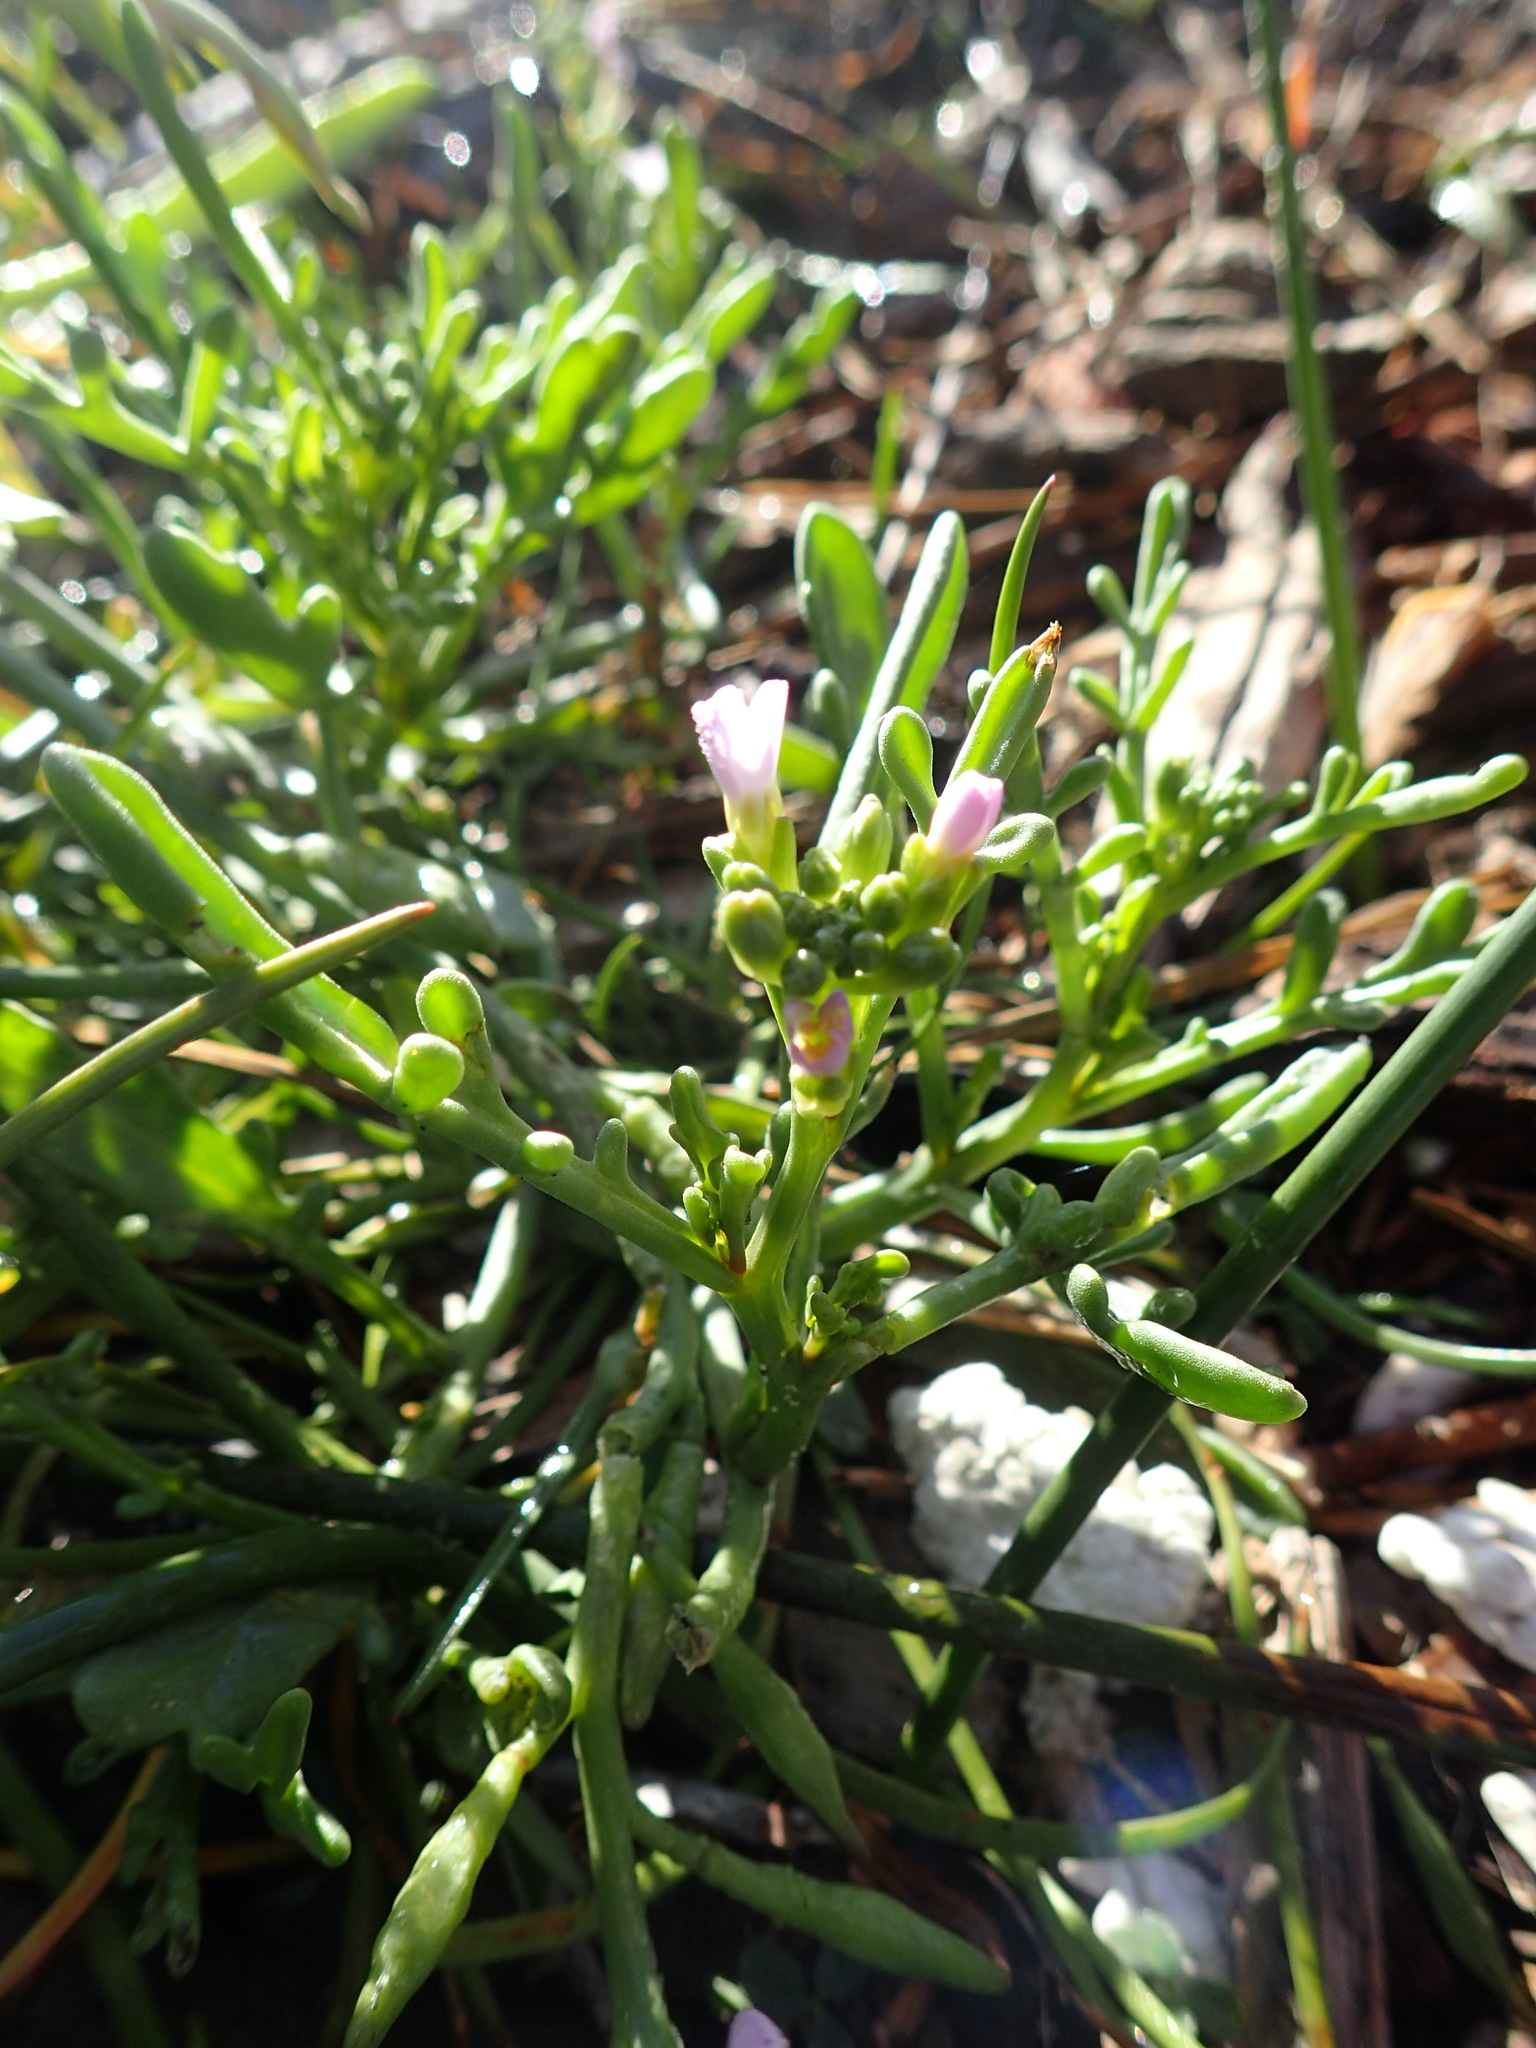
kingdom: Plantae
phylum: Tracheophyta
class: Magnoliopsida
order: Brassicales
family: Brassicaceae
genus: Cakile
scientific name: Cakile maritima
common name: Sea rocket
